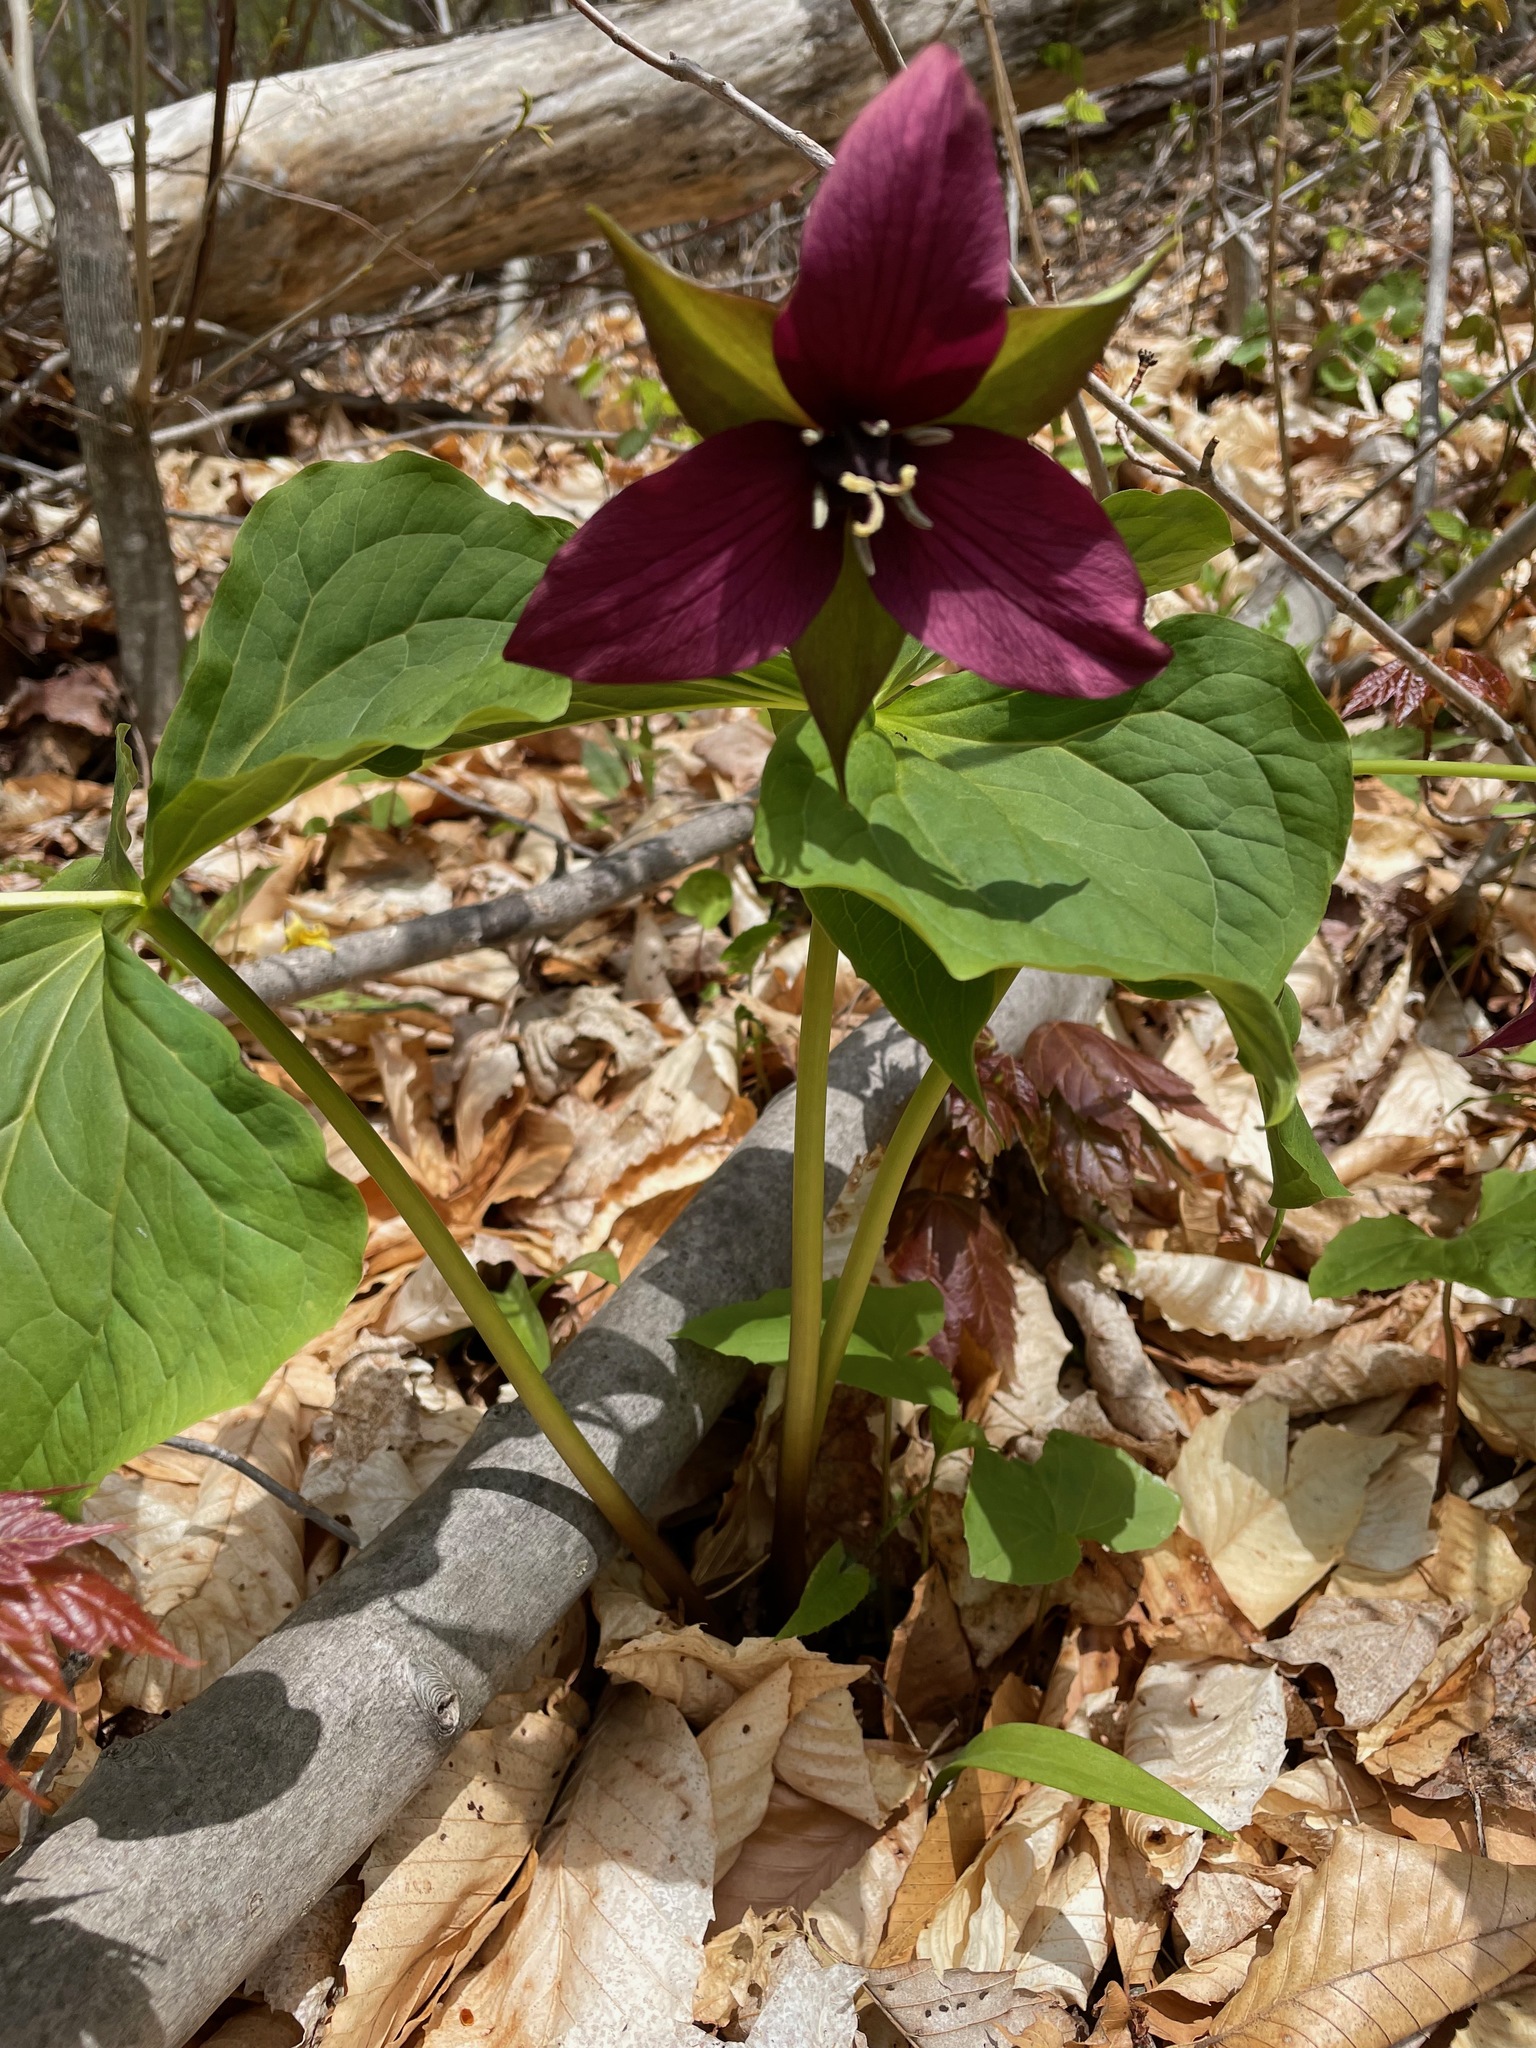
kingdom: Plantae
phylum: Tracheophyta
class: Liliopsida
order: Liliales
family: Melanthiaceae
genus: Trillium
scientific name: Trillium erectum
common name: Purple trillium
